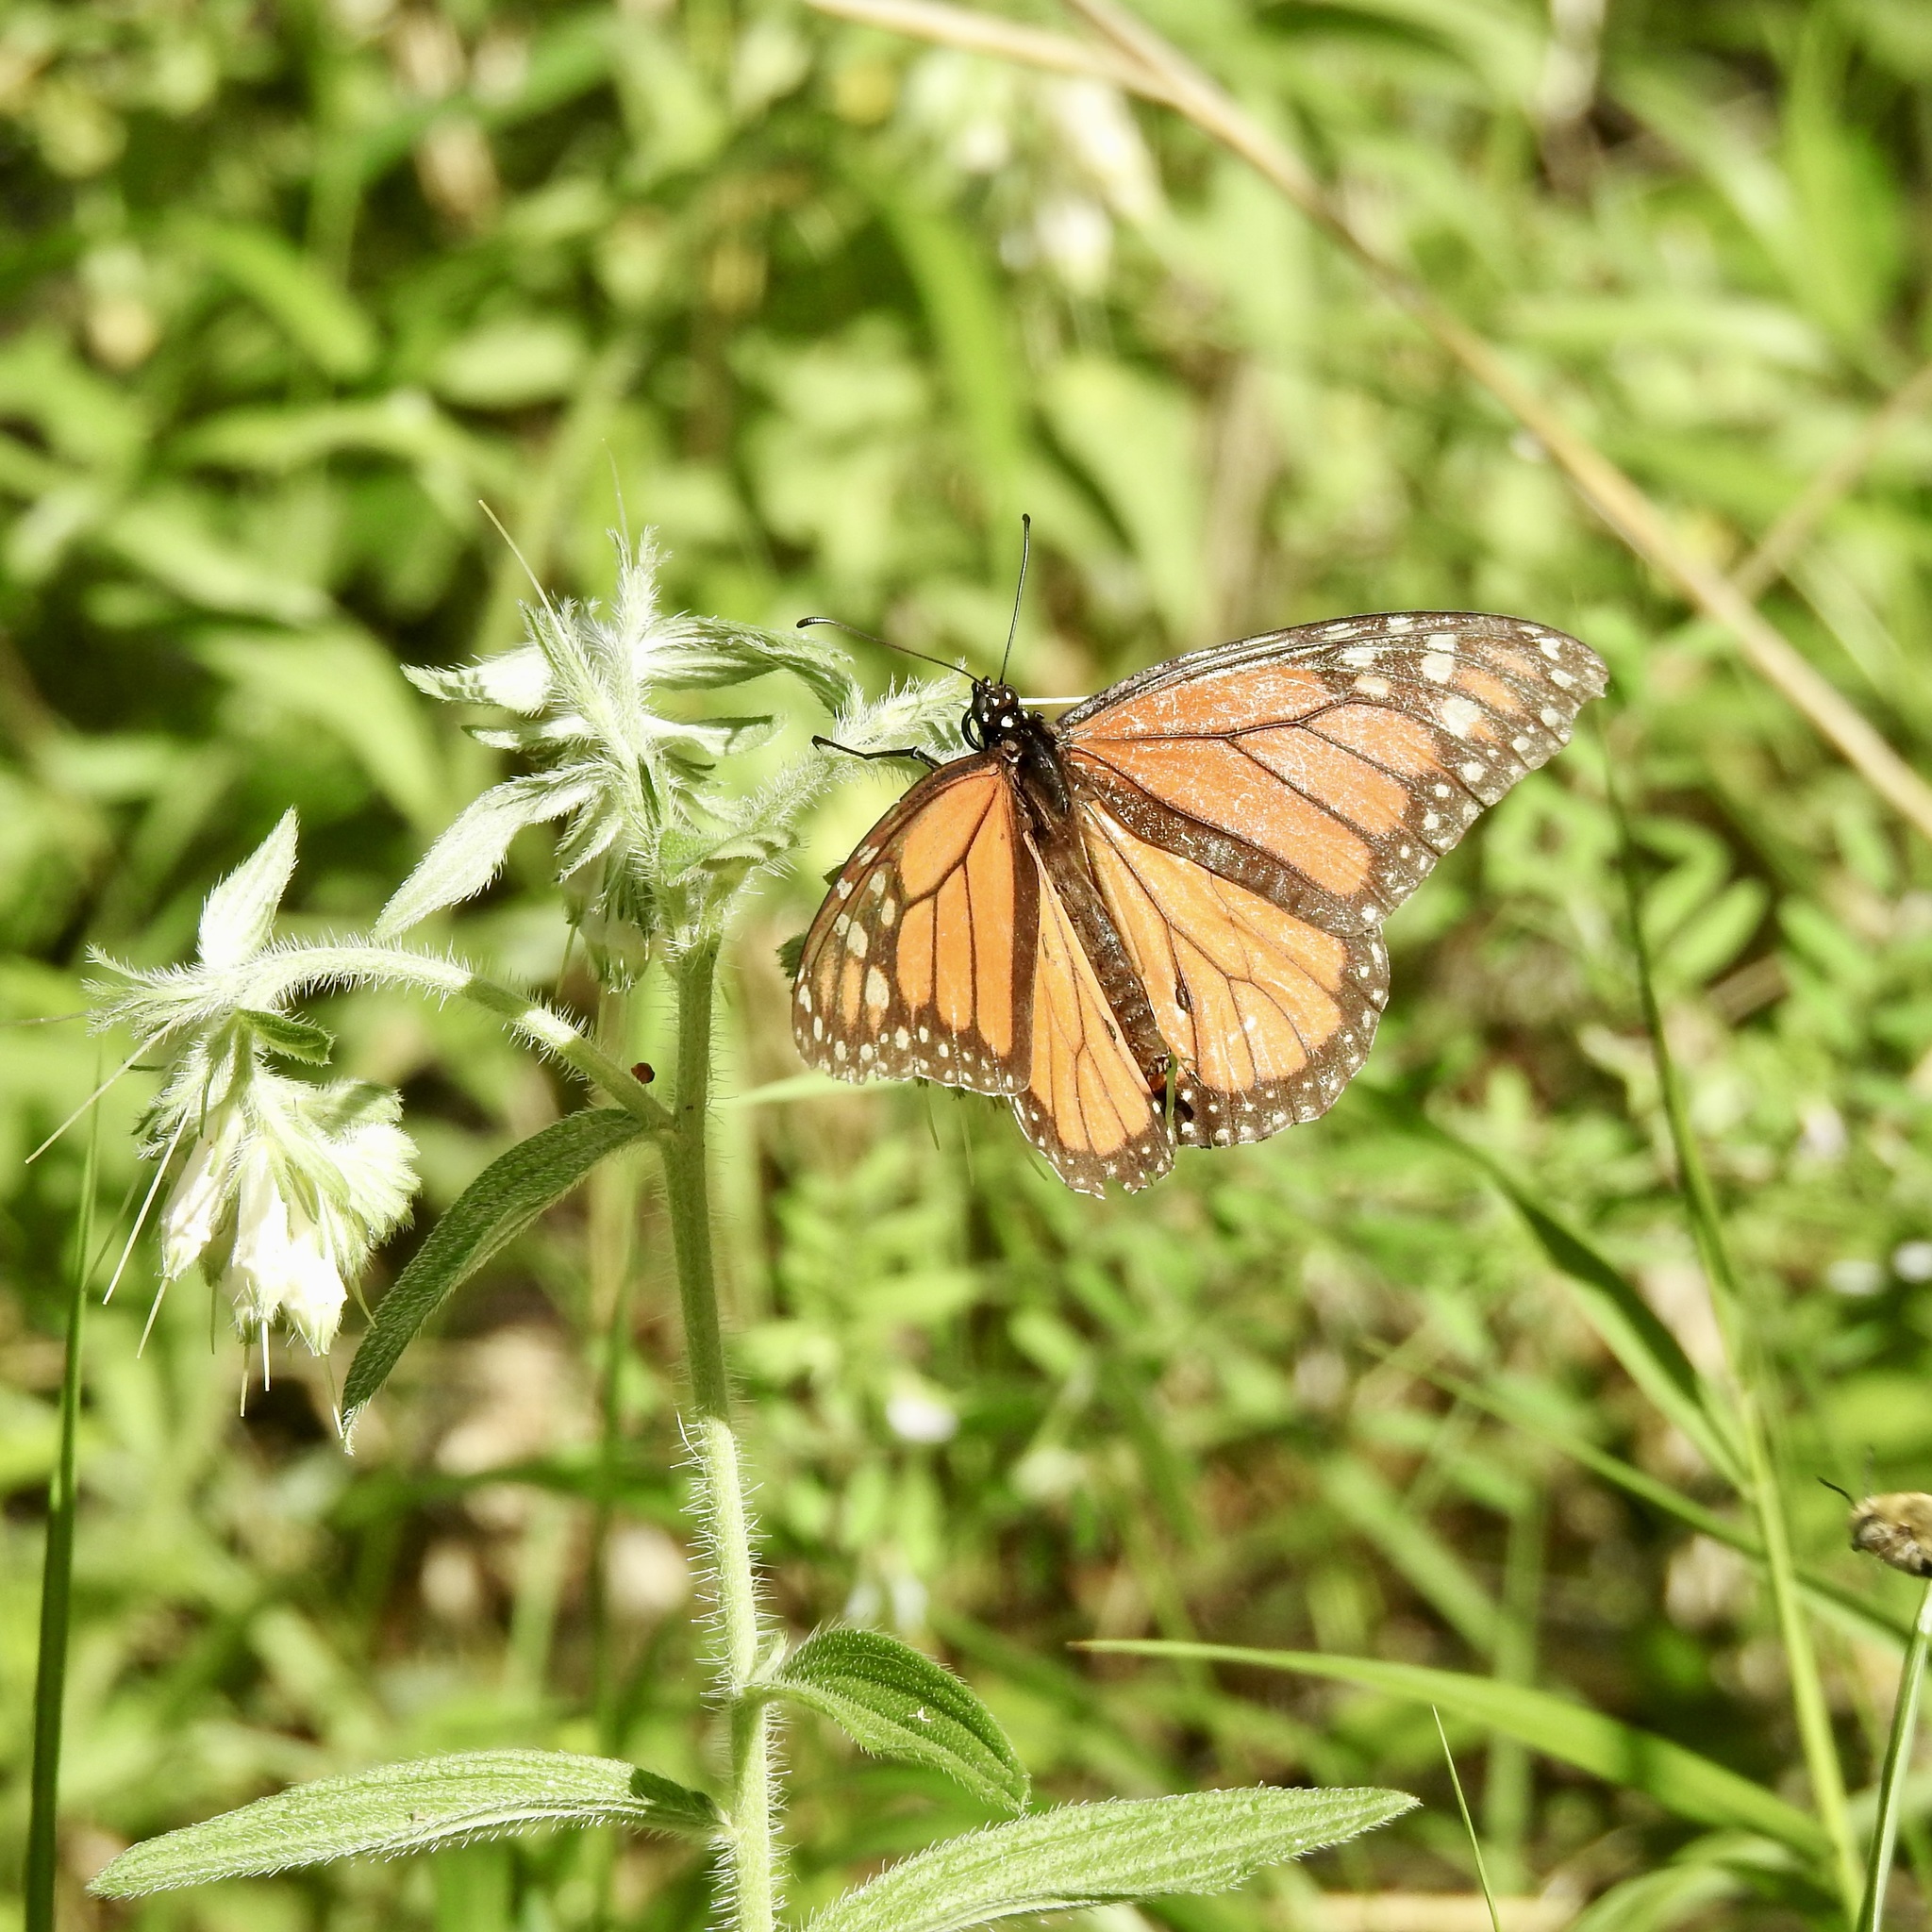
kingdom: Animalia
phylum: Arthropoda
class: Insecta
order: Lepidoptera
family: Nymphalidae
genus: Danaus
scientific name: Danaus plexippus
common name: Monarch
